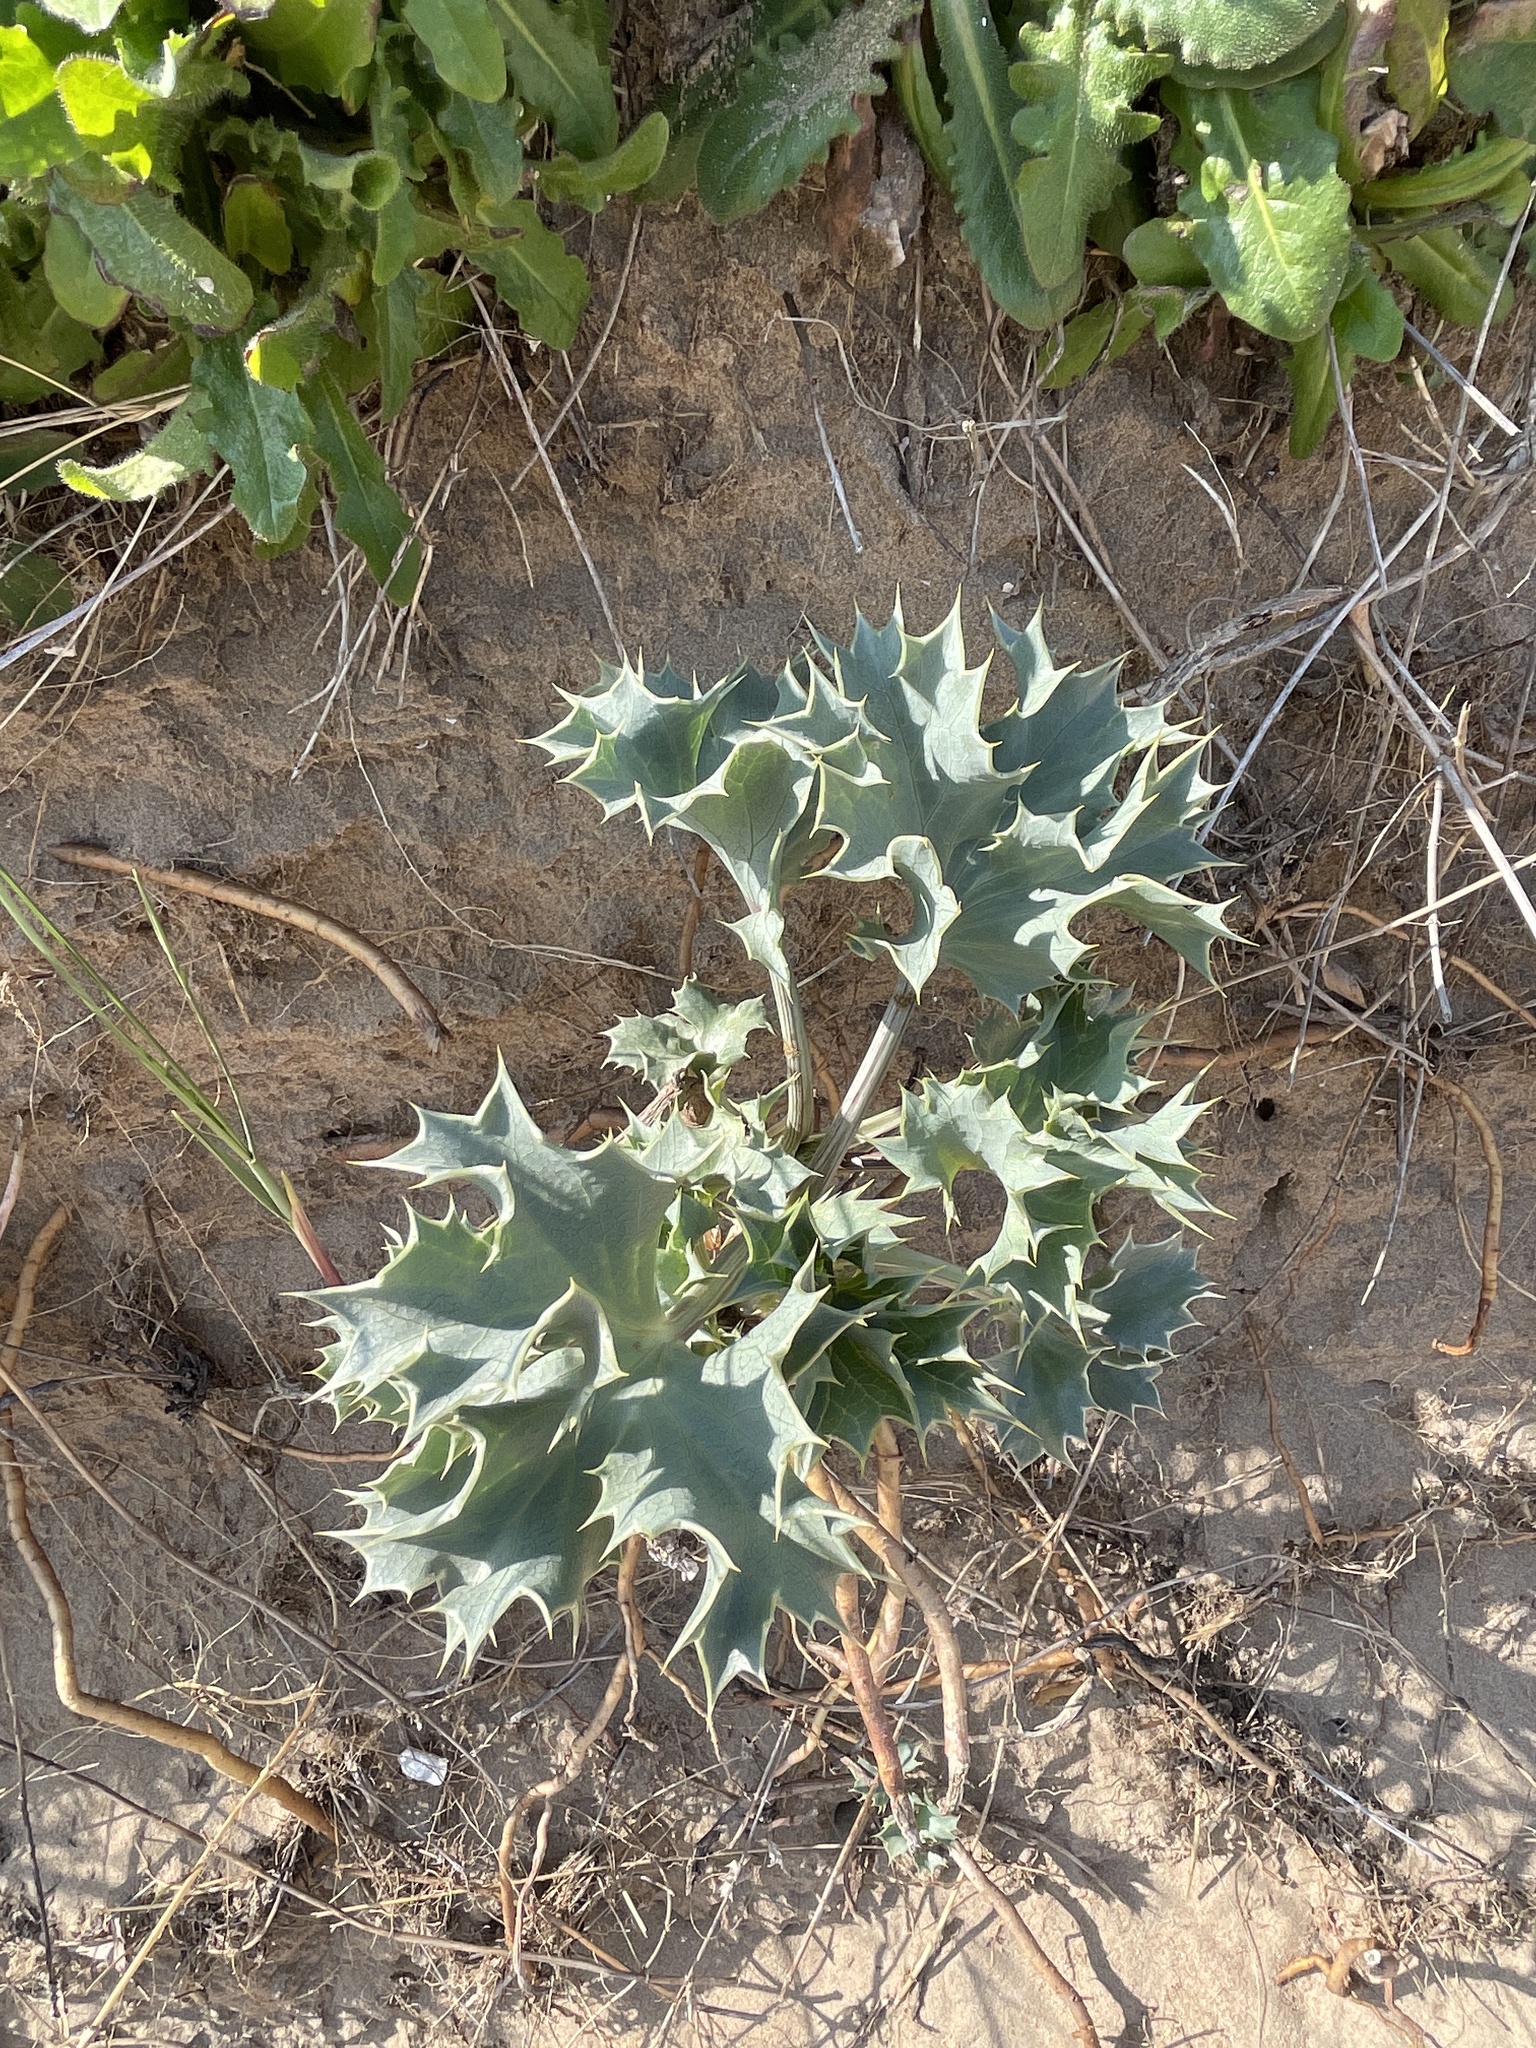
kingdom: Plantae
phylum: Tracheophyta
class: Magnoliopsida
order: Apiales
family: Apiaceae
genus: Eryngium
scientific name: Eryngium maritimum
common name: Sea-holly
